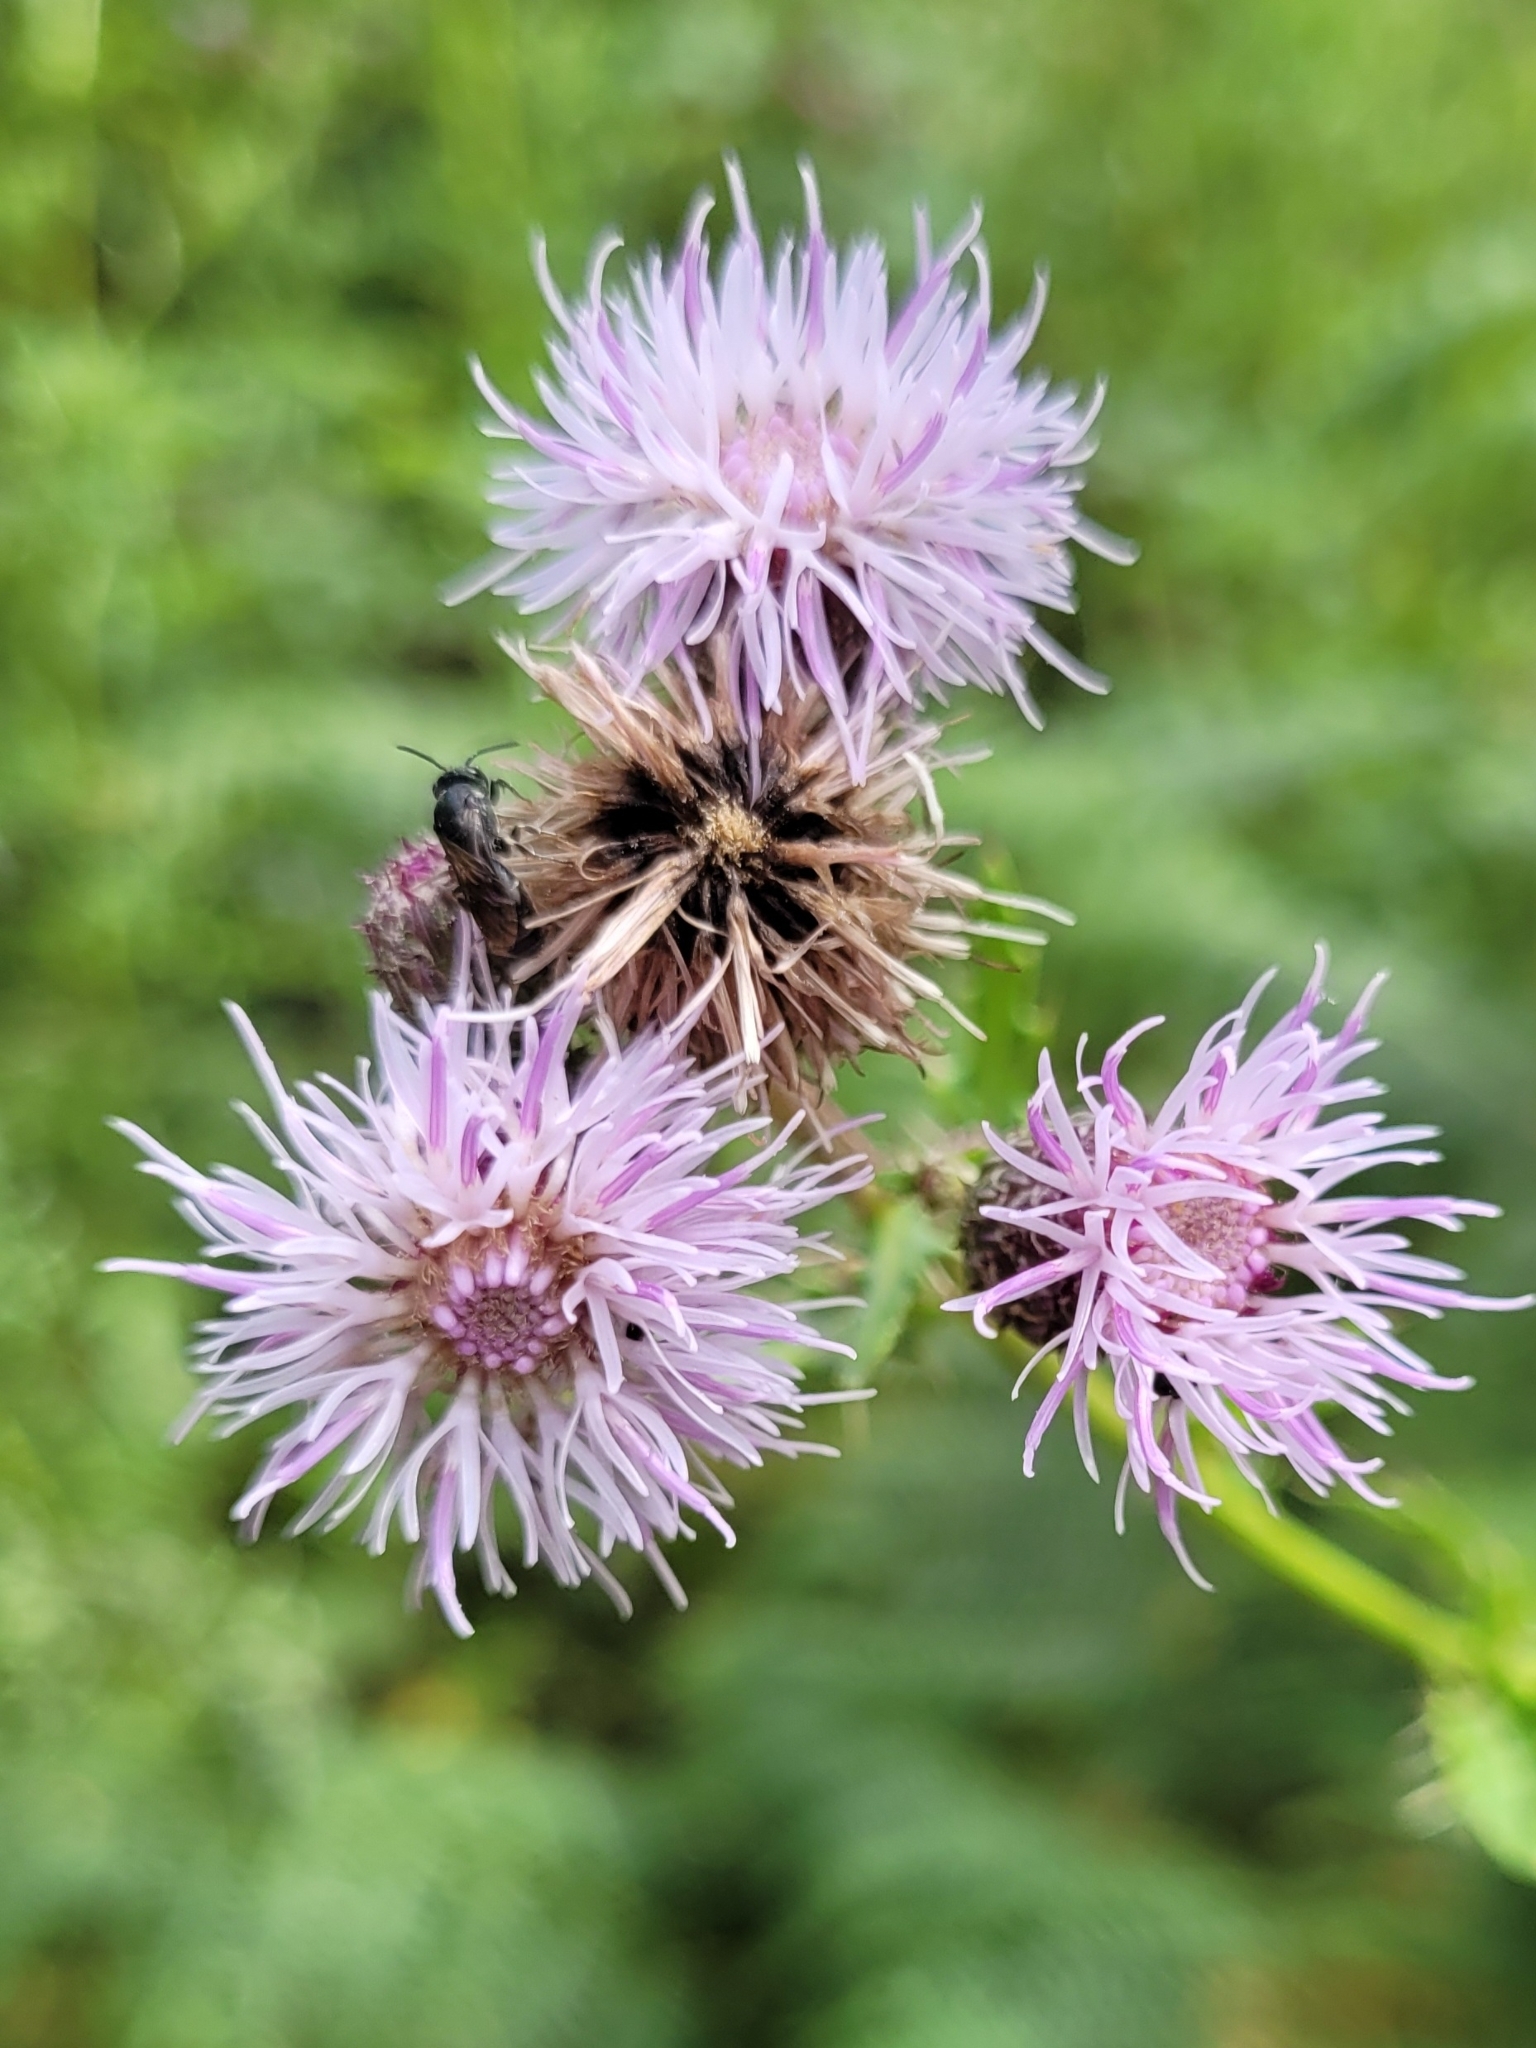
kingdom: Plantae
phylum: Tracheophyta
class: Magnoliopsida
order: Asterales
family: Asteraceae
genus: Cirsium
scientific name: Cirsium arvense
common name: Creeping thistle
